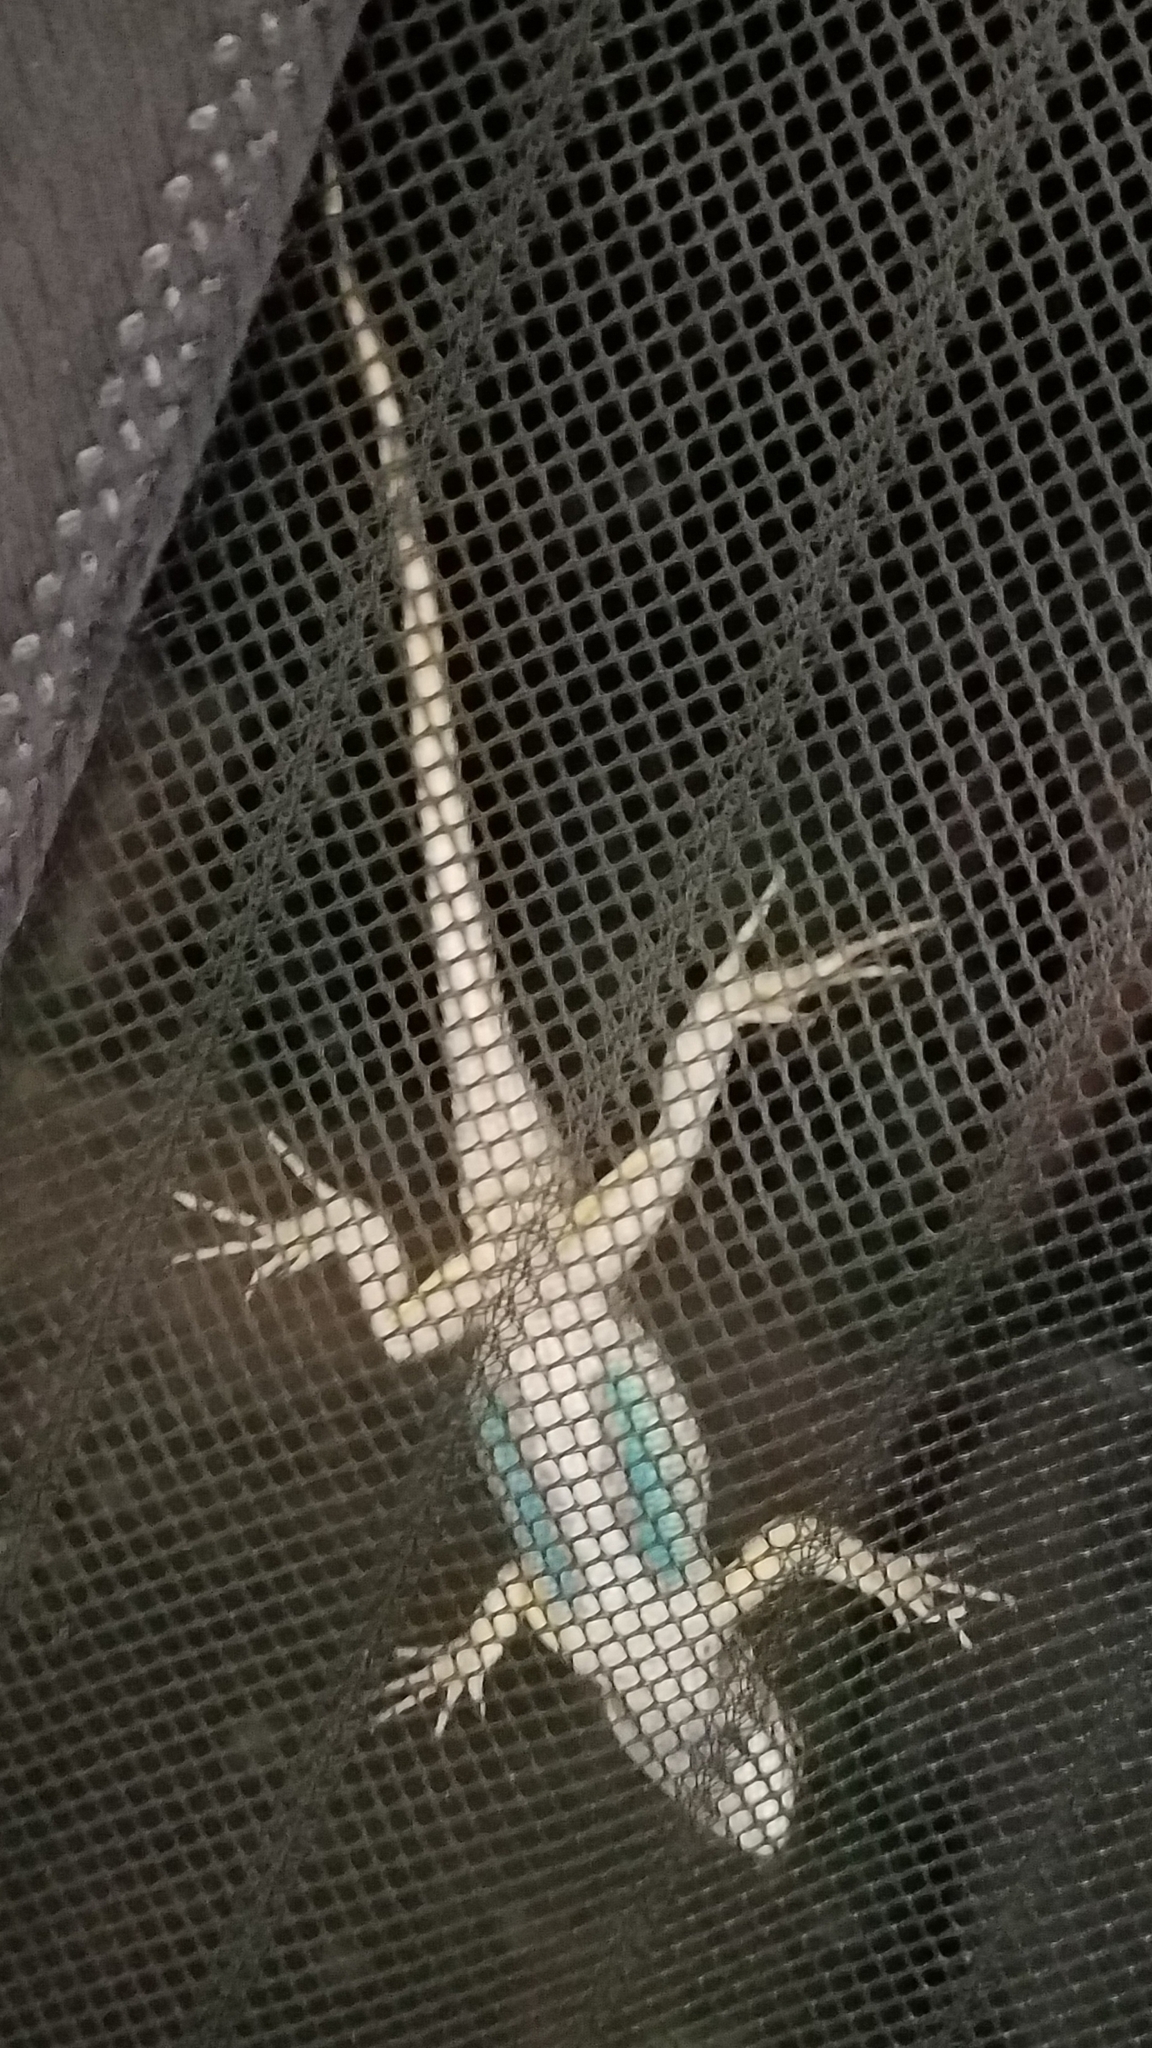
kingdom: Animalia
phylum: Chordata
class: Squamata
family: Phrynosomatidae
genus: Sceloporus
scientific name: Sceloporus occidentalis
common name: Western fence lizard
